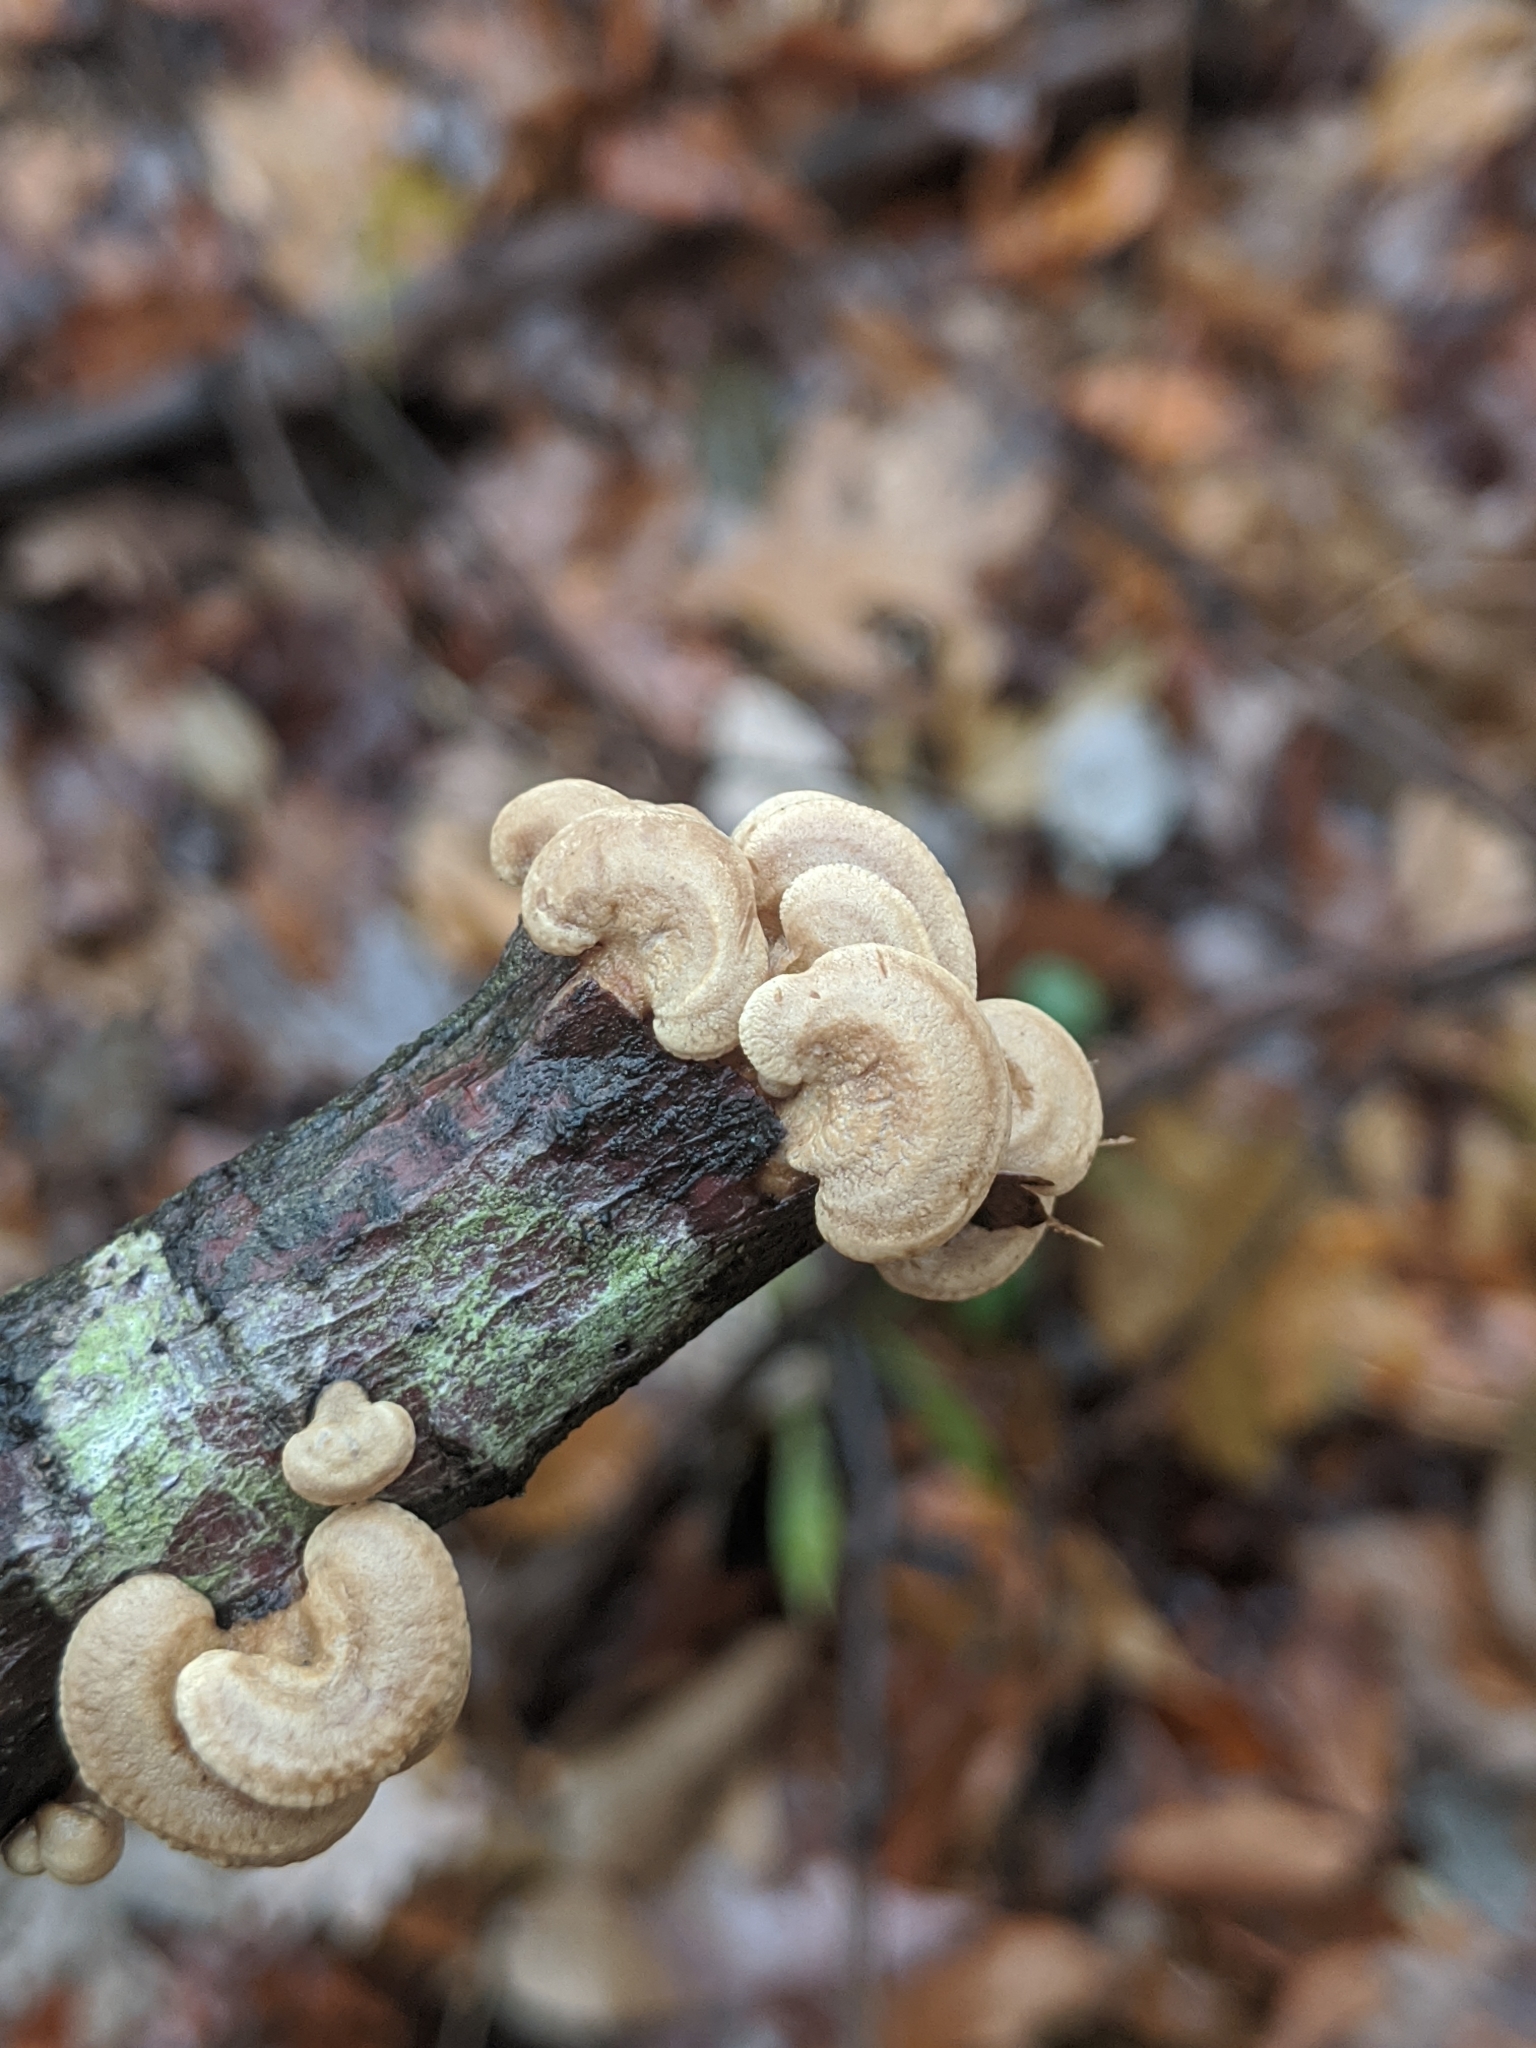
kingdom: Fungi
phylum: Basidiomycota
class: Agaricomycetes
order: Agaricales
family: Mycenaceae
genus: Panellus
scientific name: Panellus stipticus
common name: Bitter oysterling
